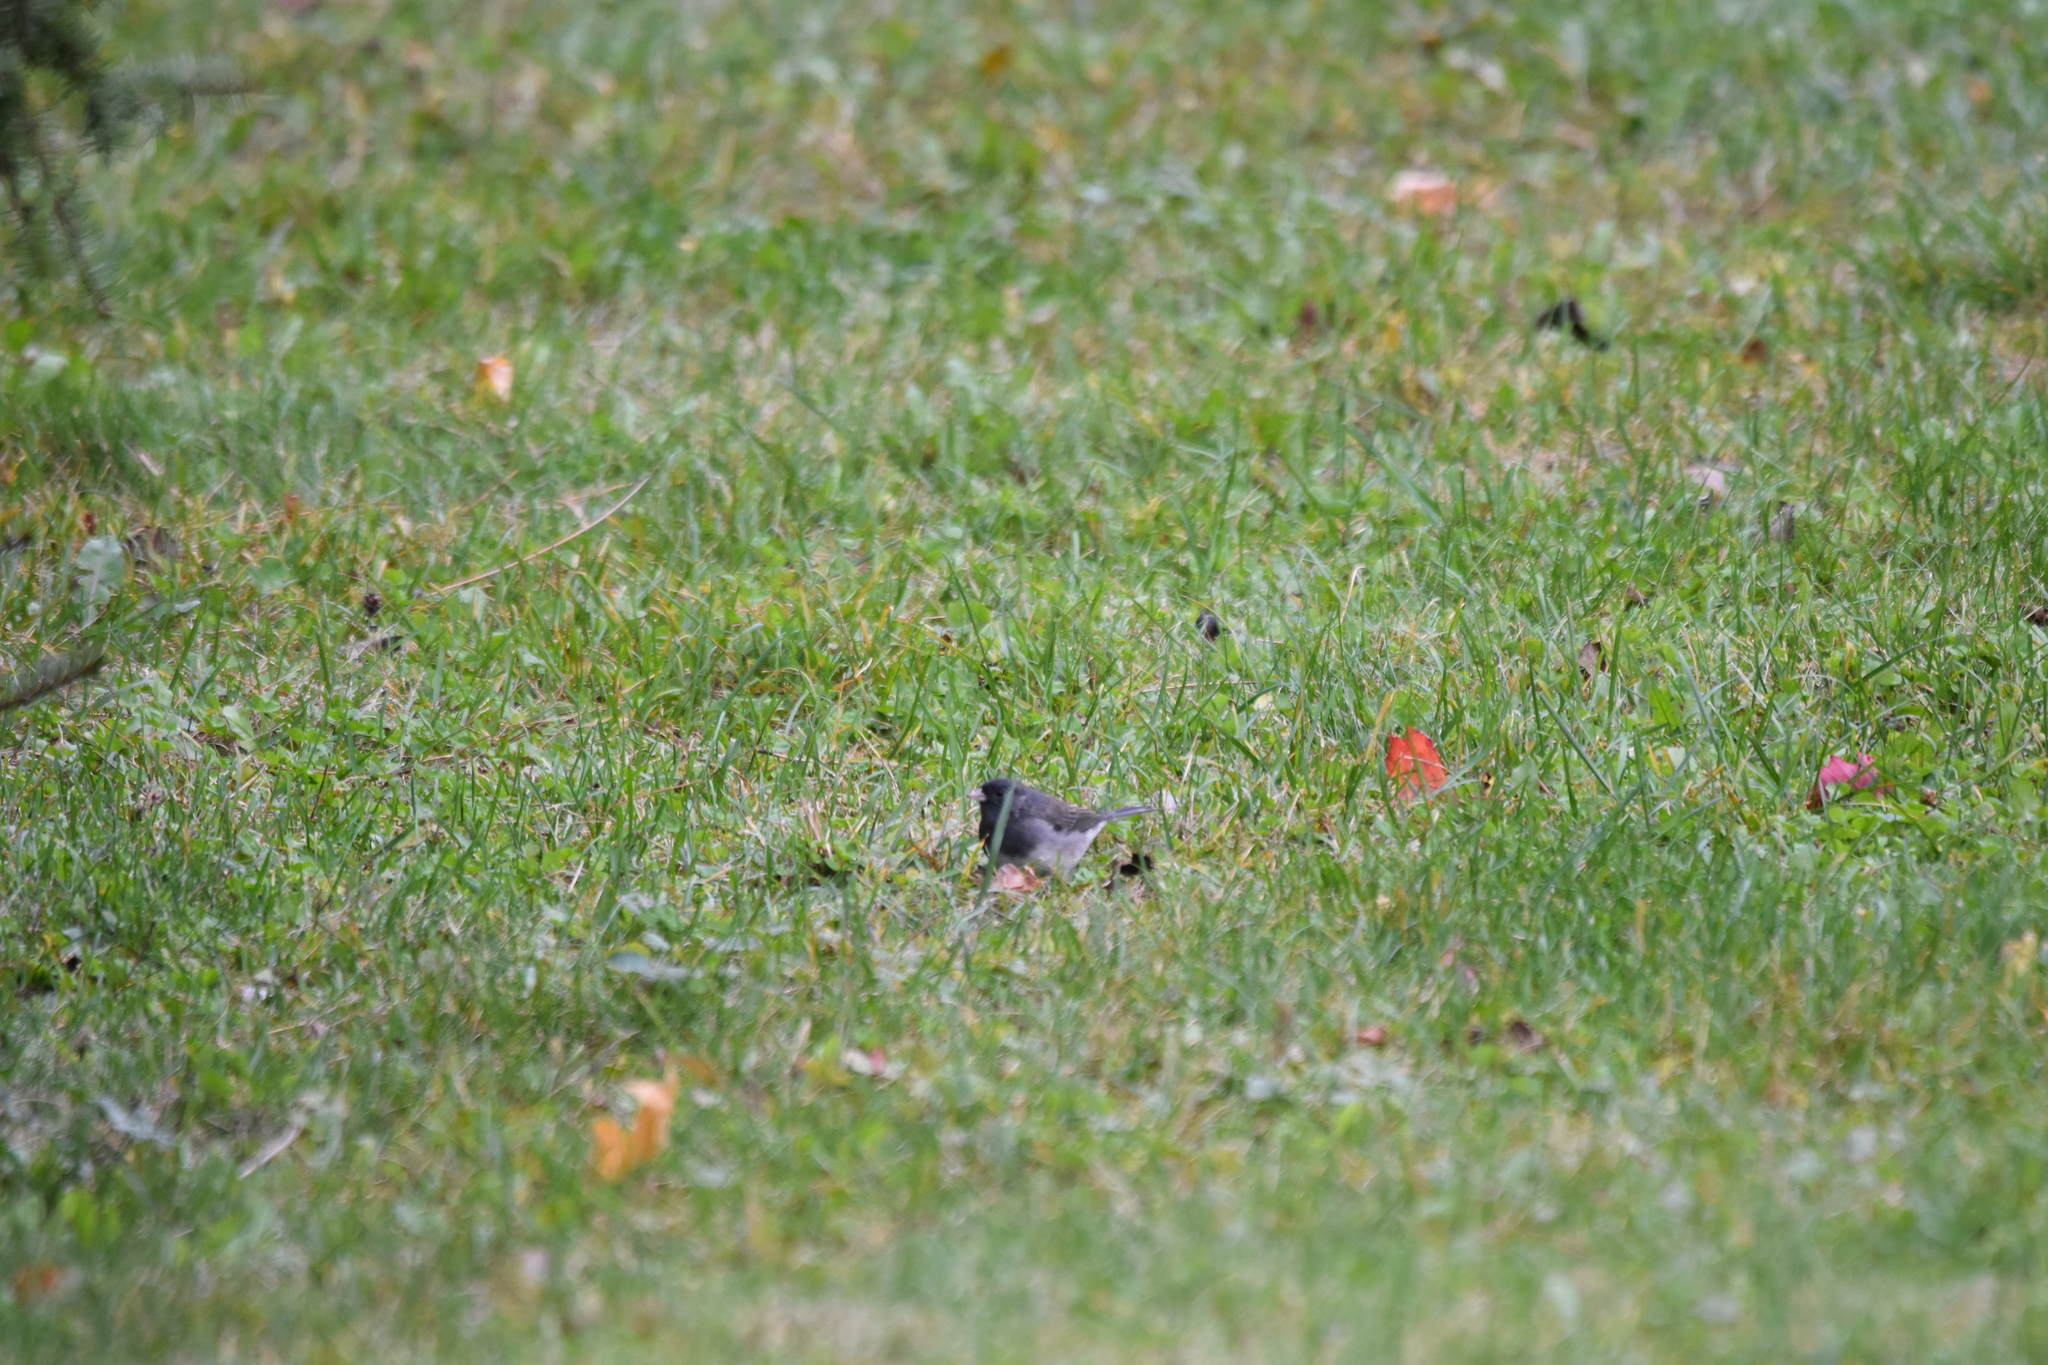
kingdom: Animalia
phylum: Chordata
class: Aves
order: Passeriformes
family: Passerellidae
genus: Junco
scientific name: Junco hyemalis
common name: Dark-eyed junco
